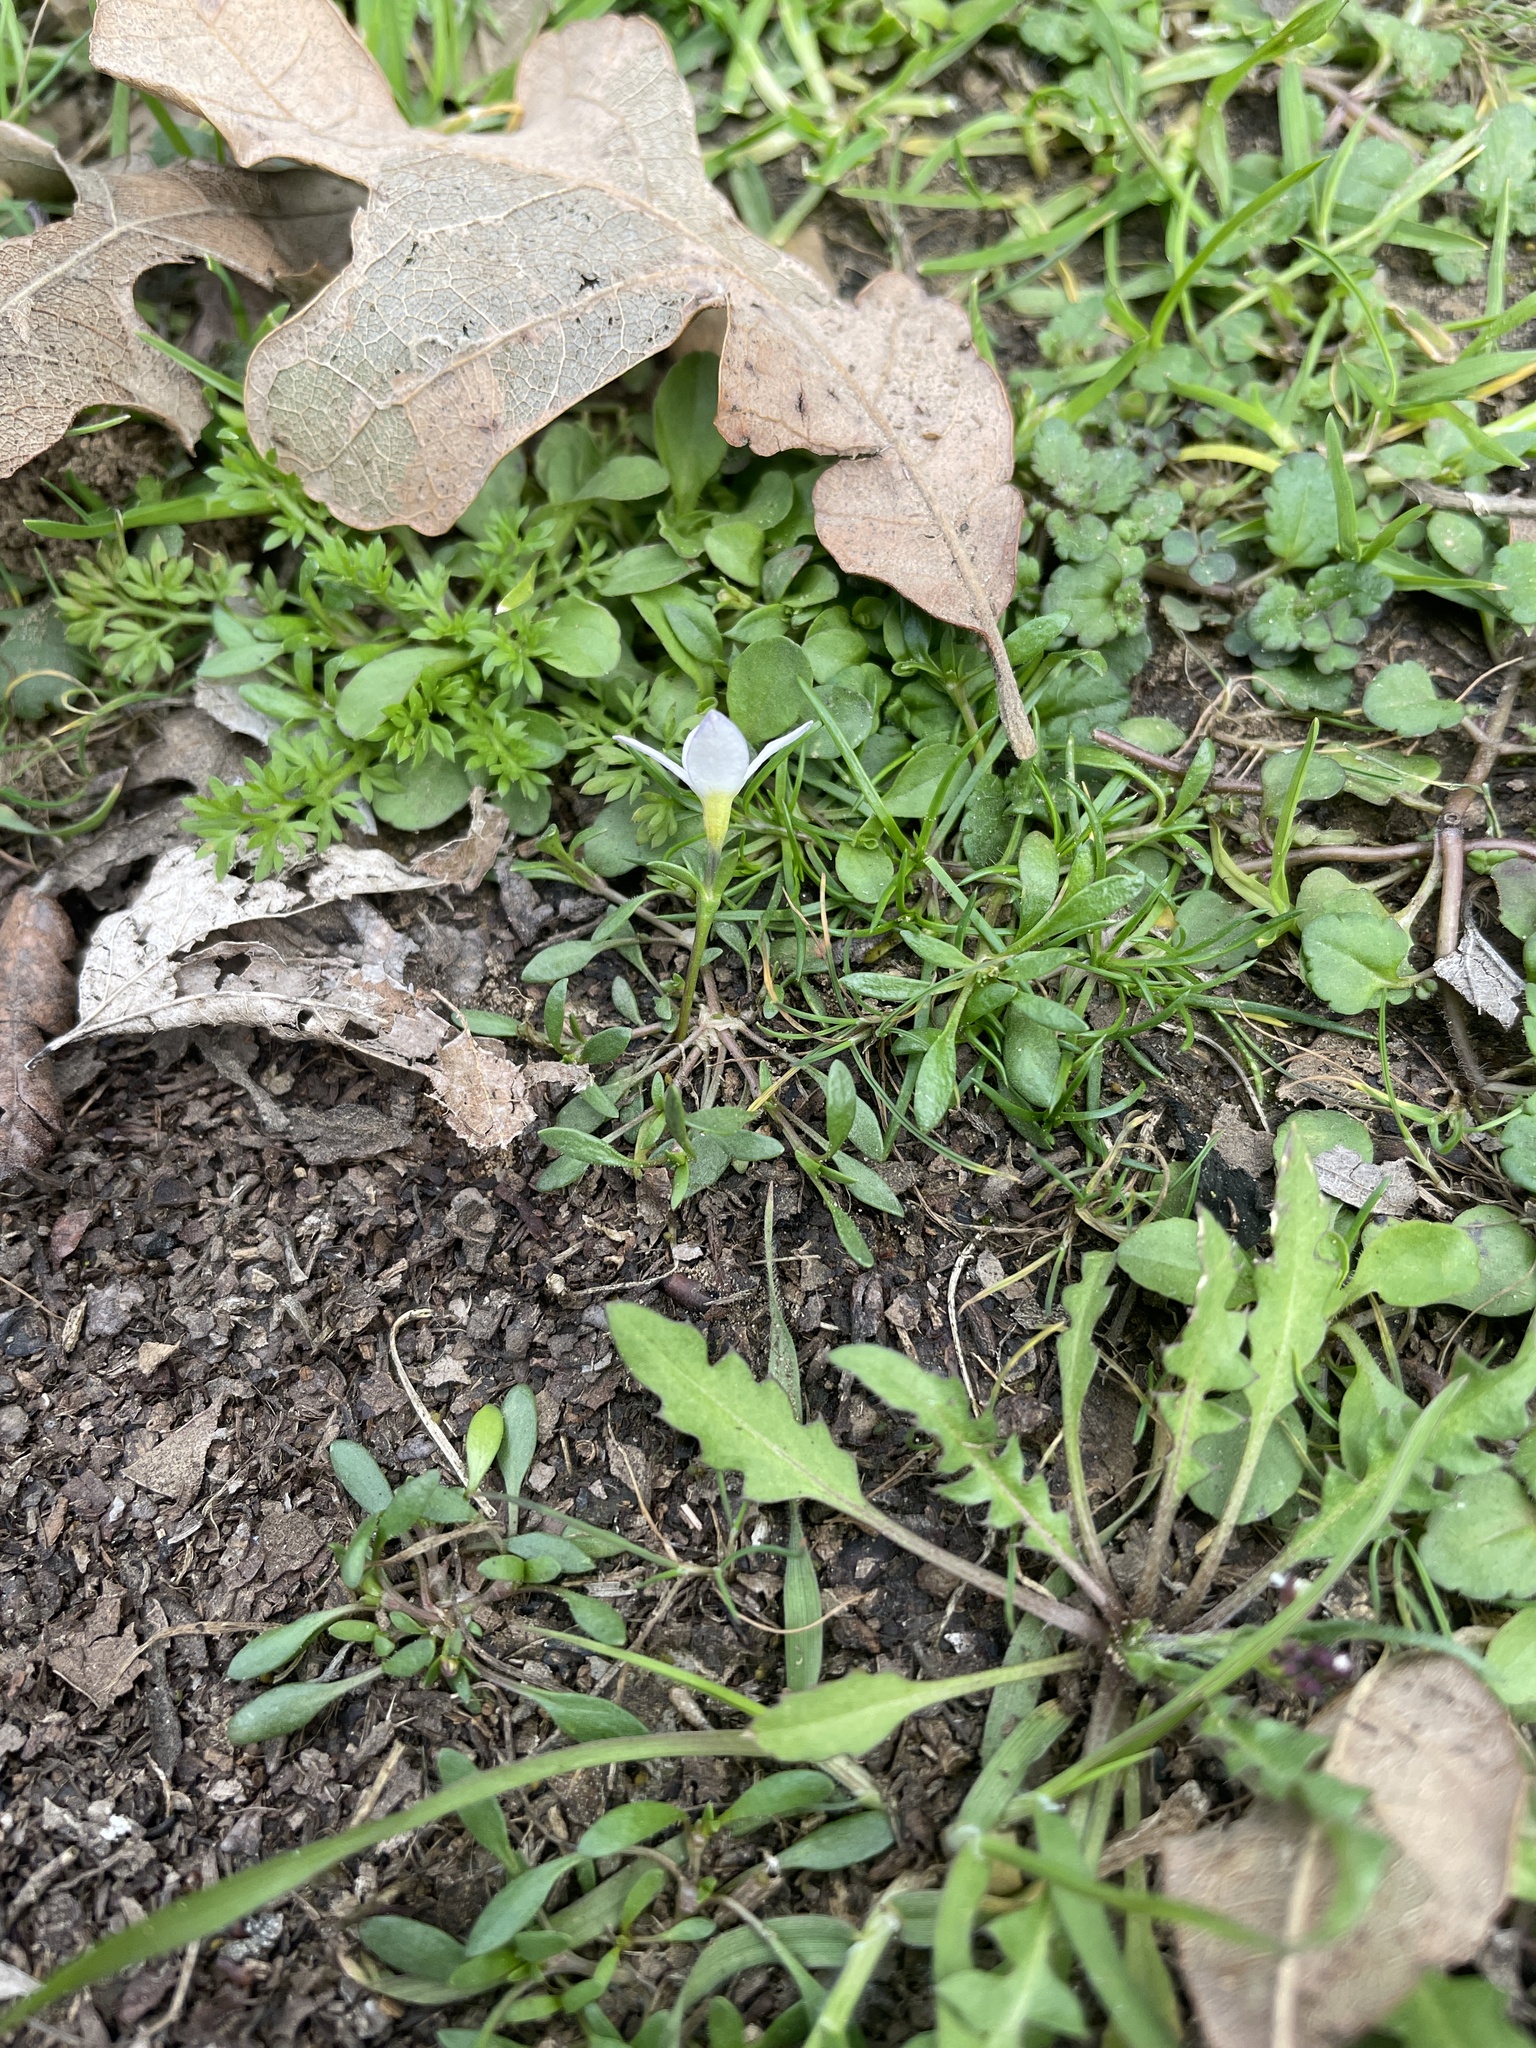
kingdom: Plantae
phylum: Tracheophyta
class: Magnoliopsida
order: Gentianales
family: Rubiaceae
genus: Houstonia
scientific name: Houstonia rosea
